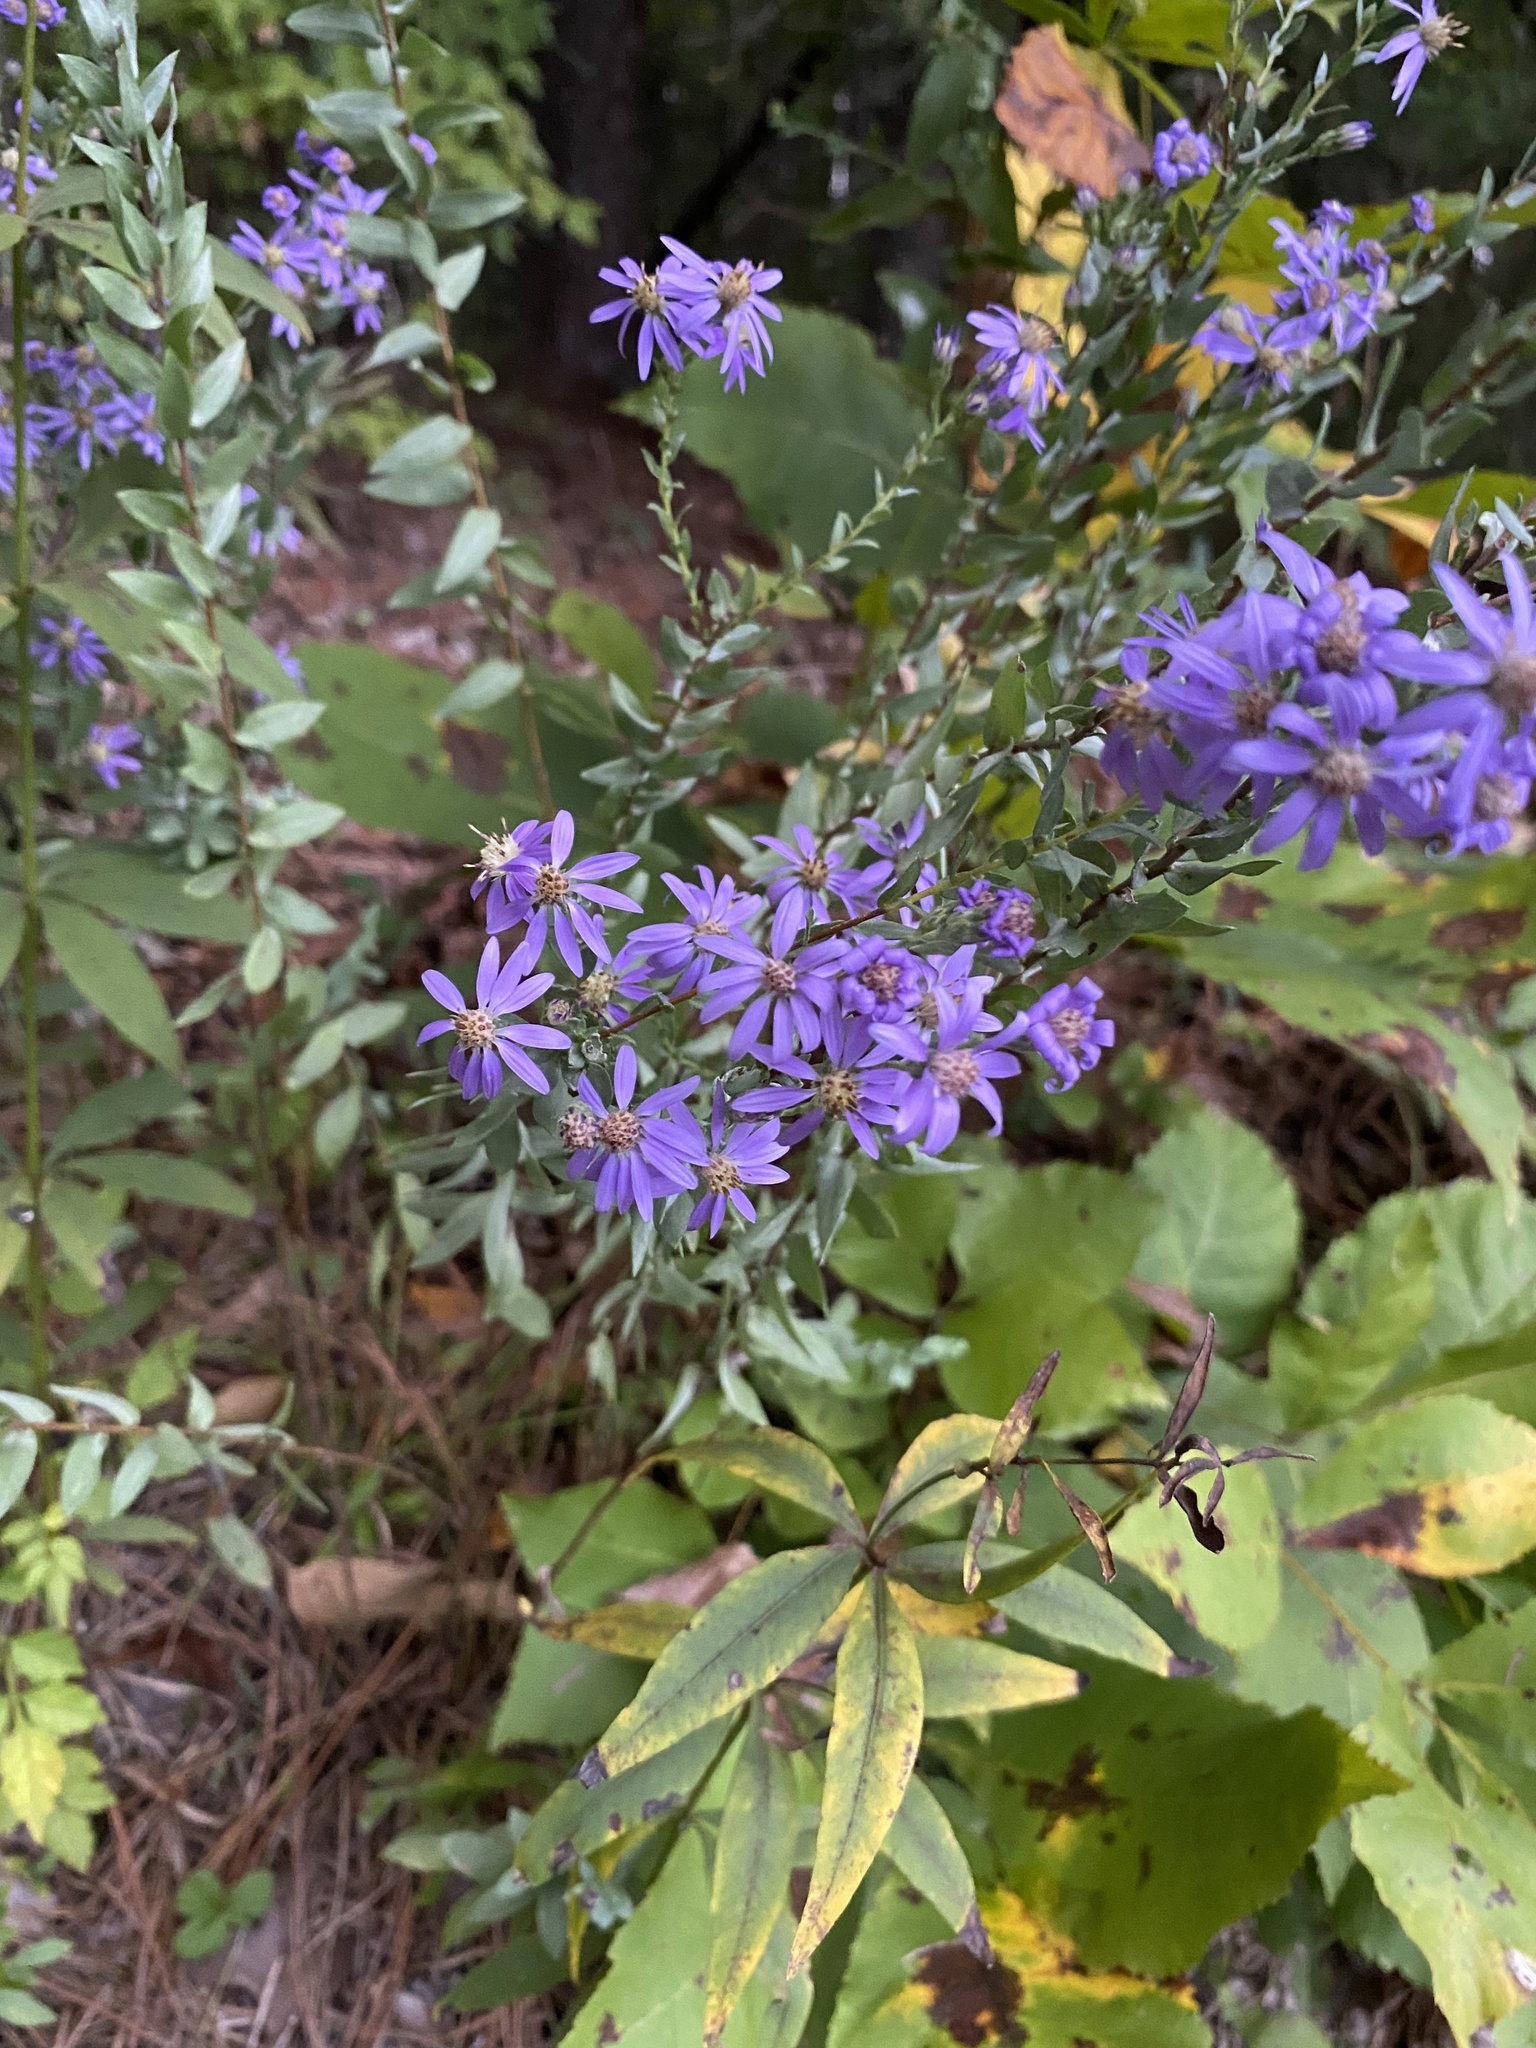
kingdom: Plantae
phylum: Tracheophyta
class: Magnoliopsida
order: Asterales
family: Asteraceae
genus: Symphyotrichum
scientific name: Symphyotrichum concolor
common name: Eastern silver aster
